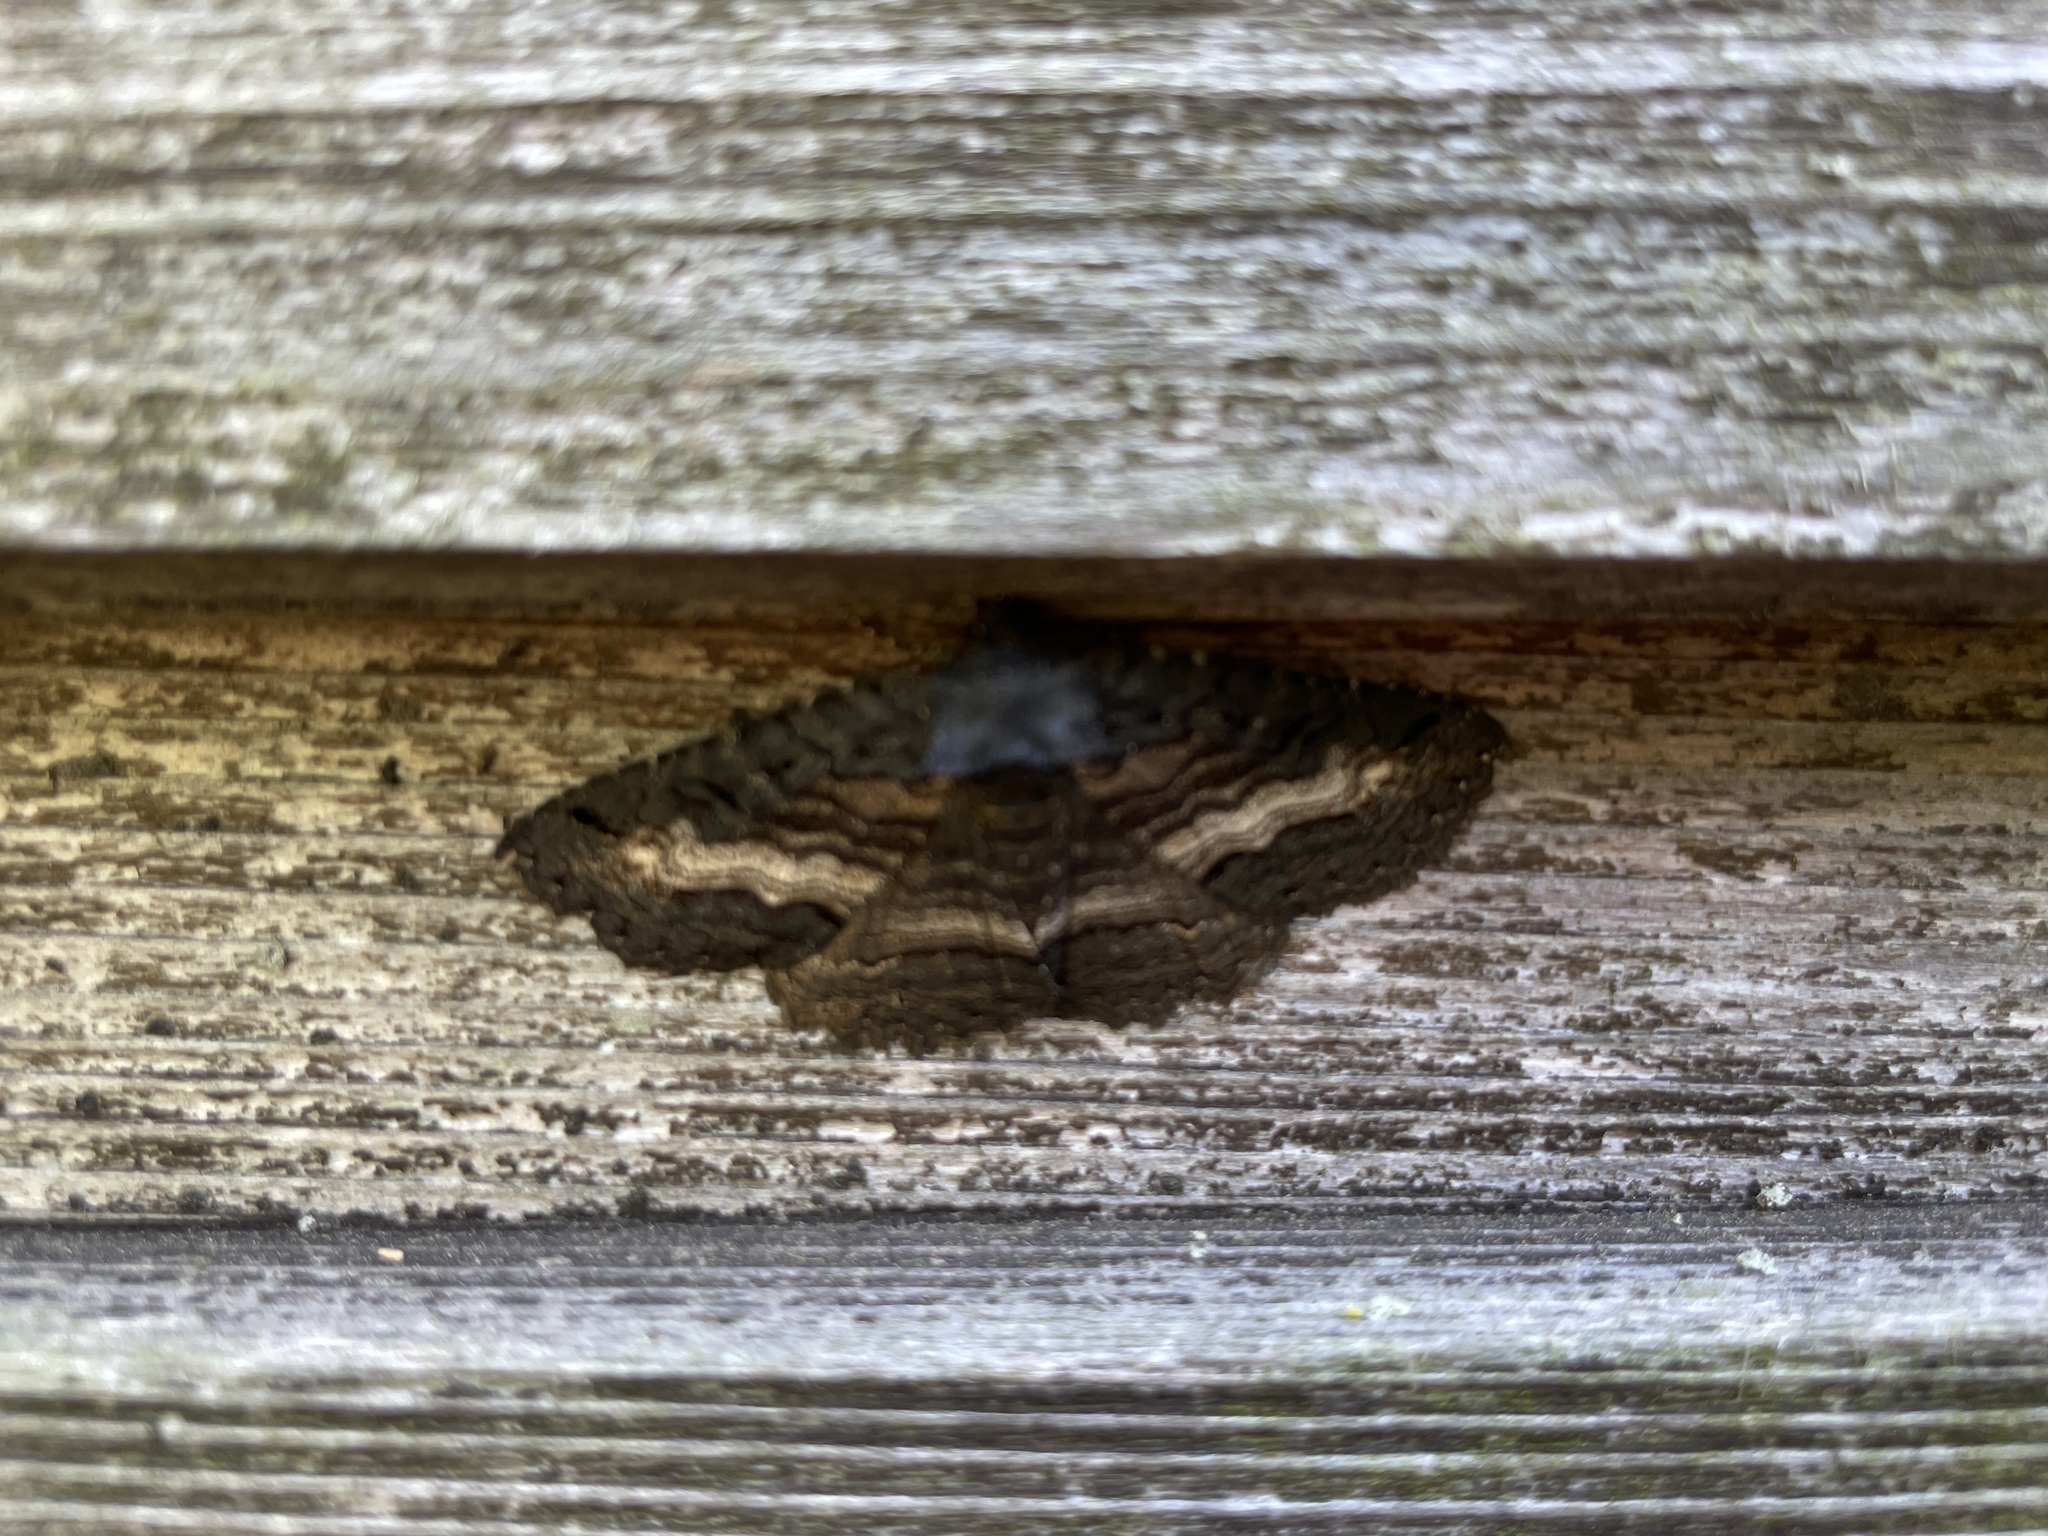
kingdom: Animalia
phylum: Arthropoda
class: Insecta
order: Lepidoptera
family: Erebidae
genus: Zale
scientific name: Zale undularis
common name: Black zale moth
